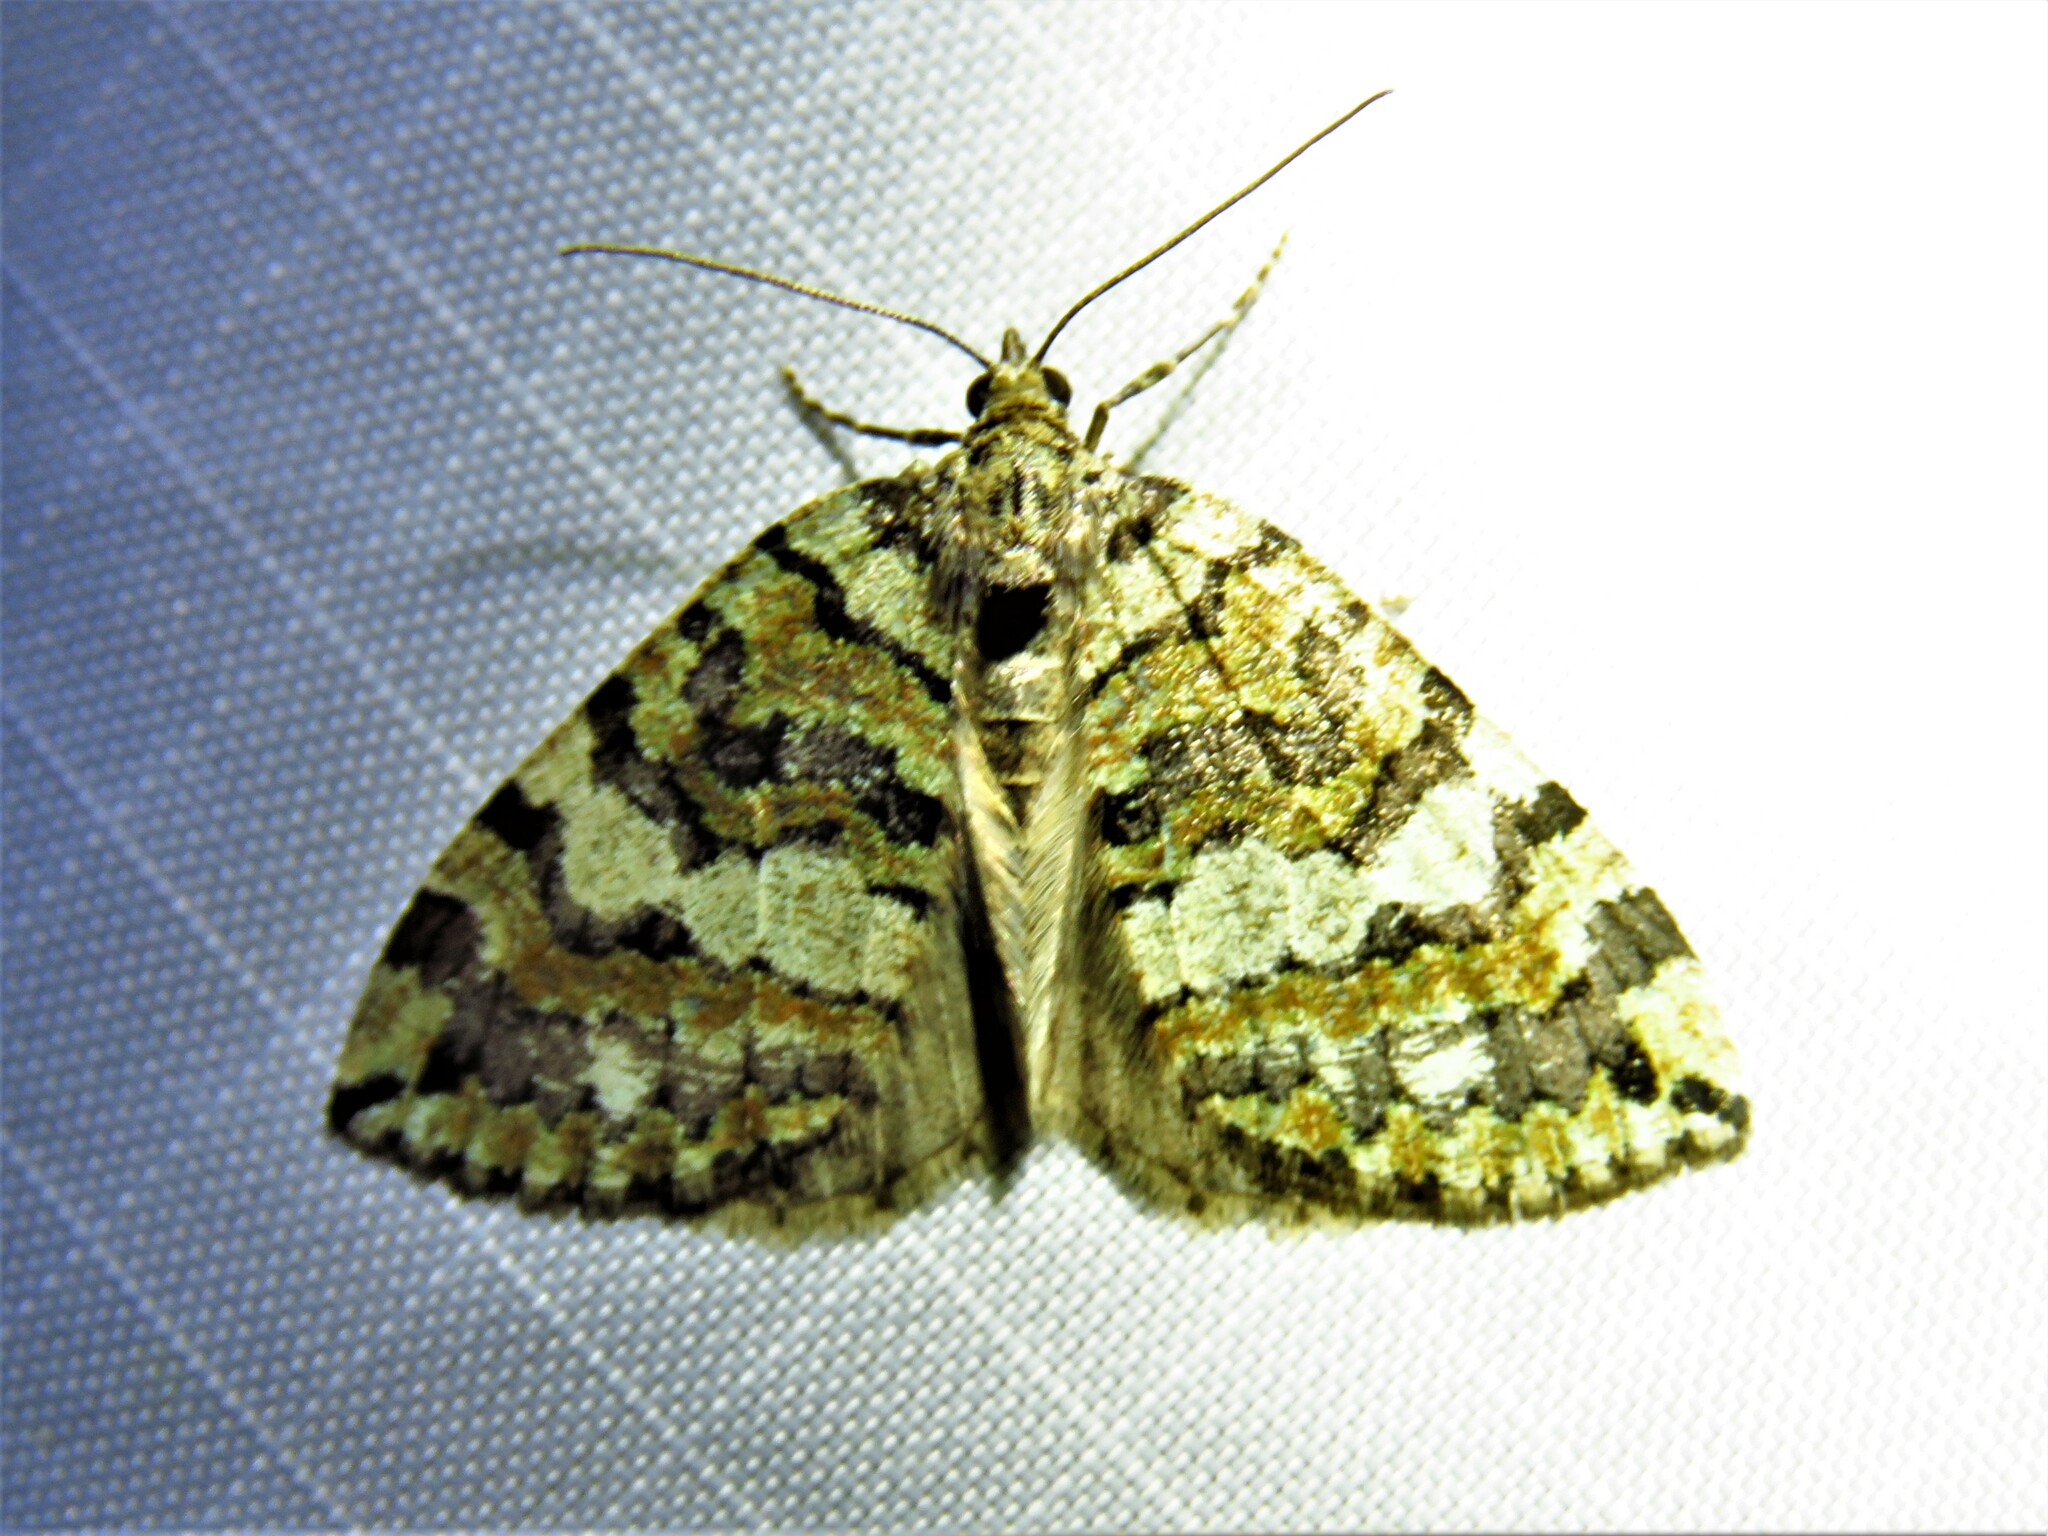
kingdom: Animalia
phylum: Arthropoda
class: Insecta
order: Lepidoptera
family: Geometridae
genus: Hydriomena
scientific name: Hydriomena furcata
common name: July highflyer
